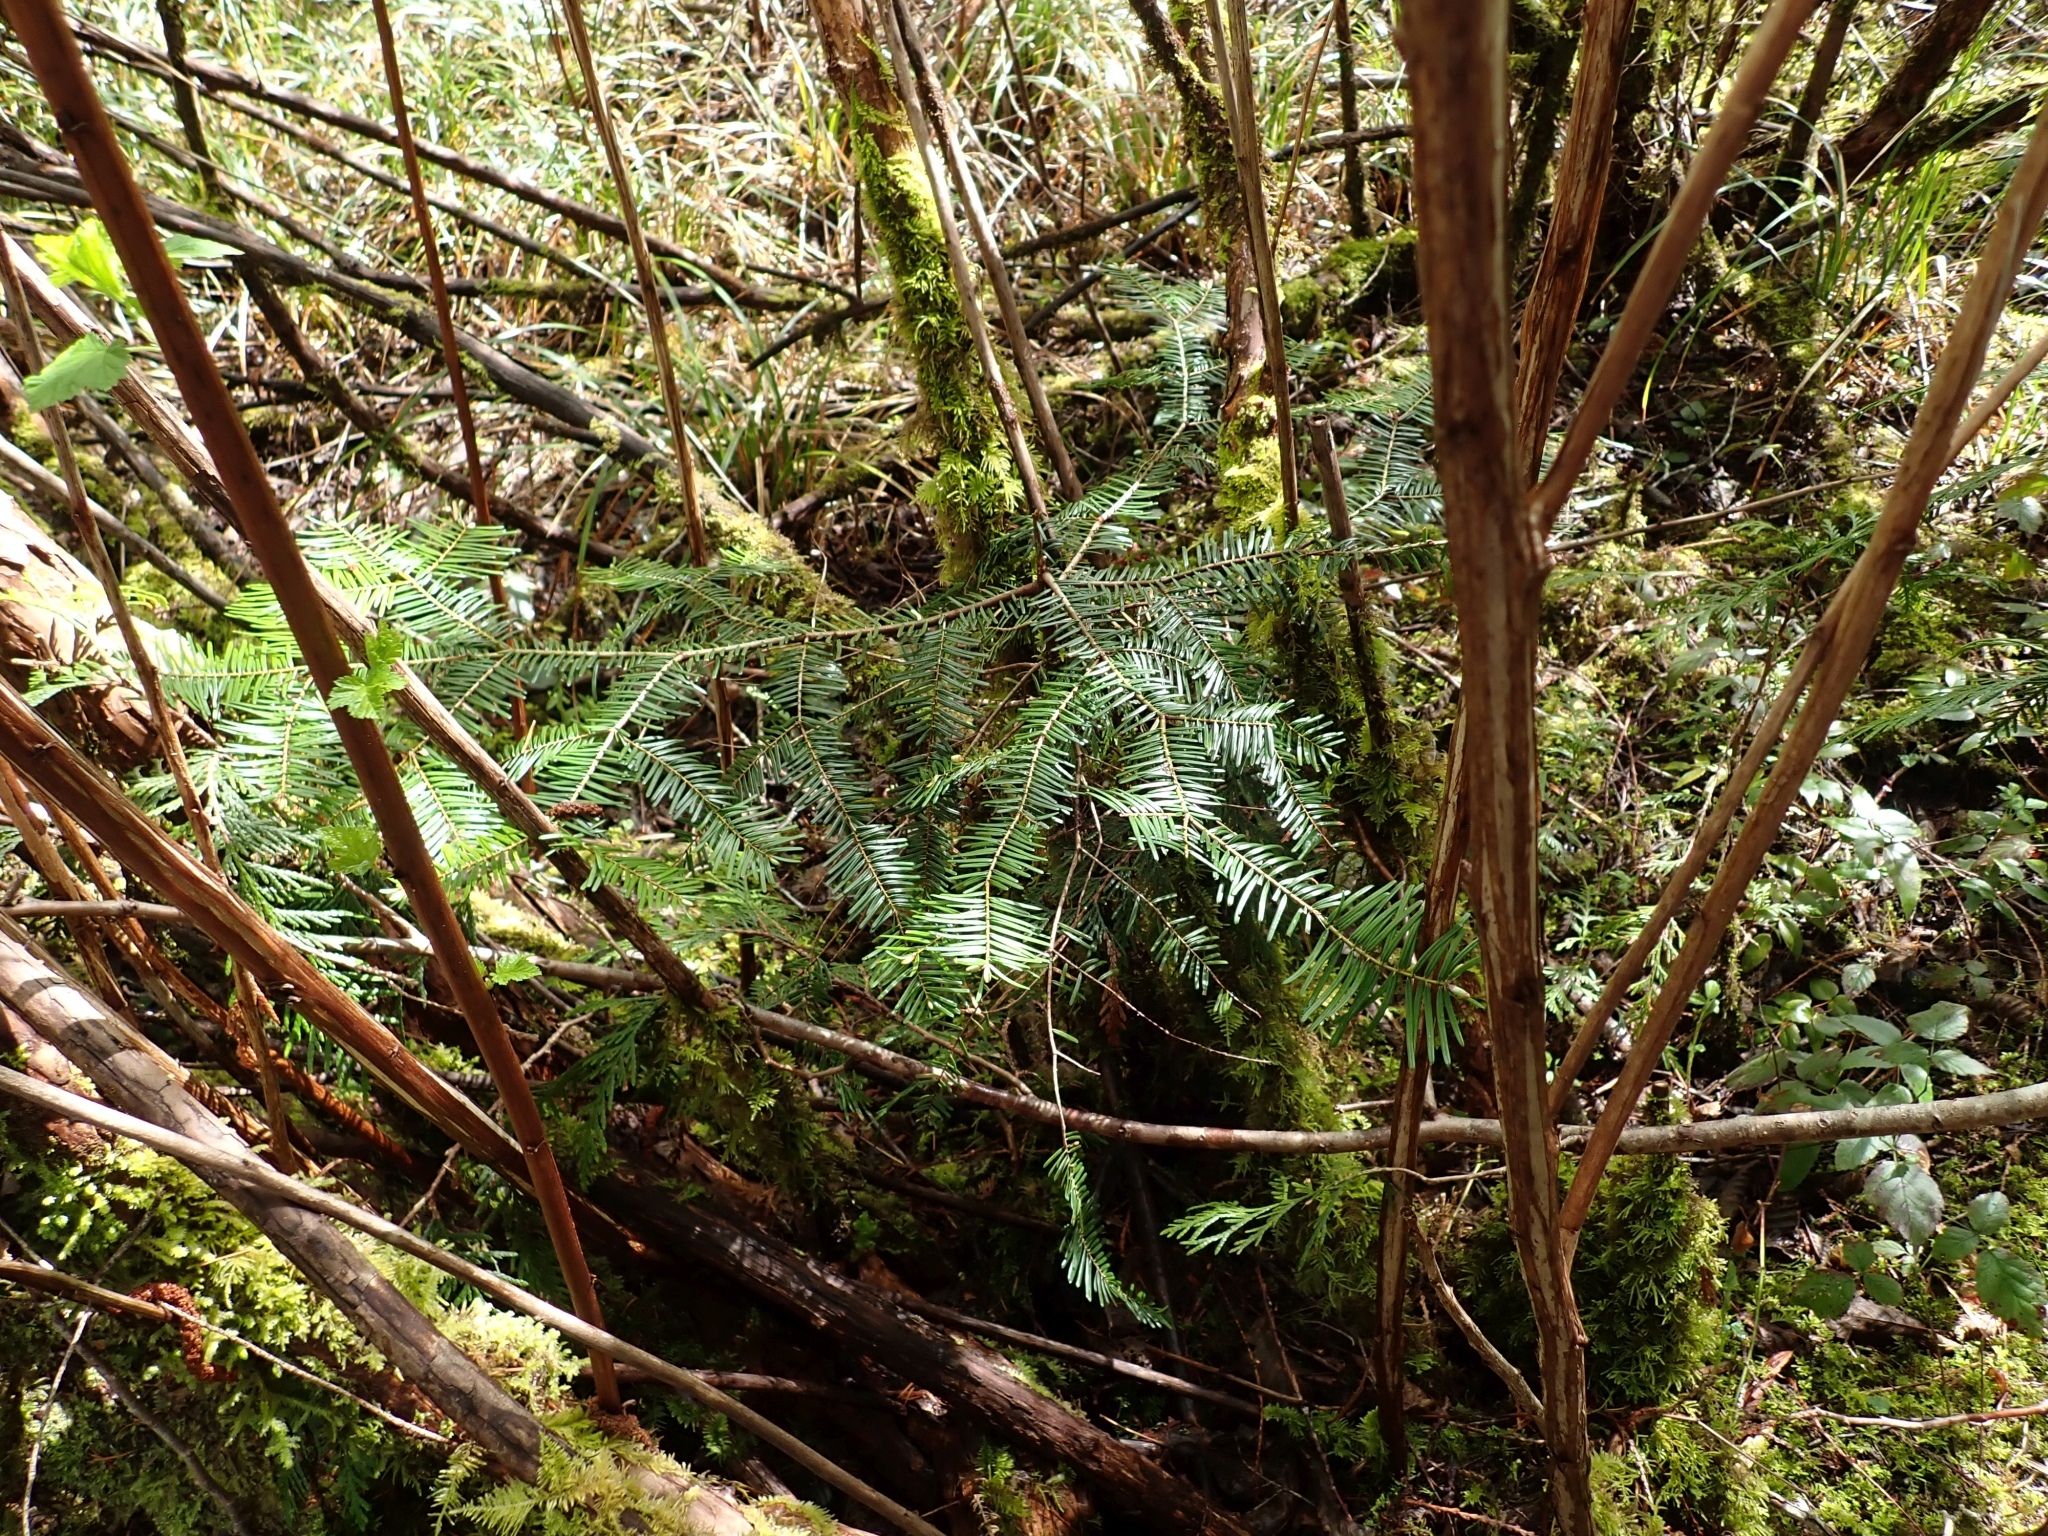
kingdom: Plantae
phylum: Tracheophyta
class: Pinopsida
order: Pinales
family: Pinaceae
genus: Abies
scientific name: Abies grandis
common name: Giant fir
